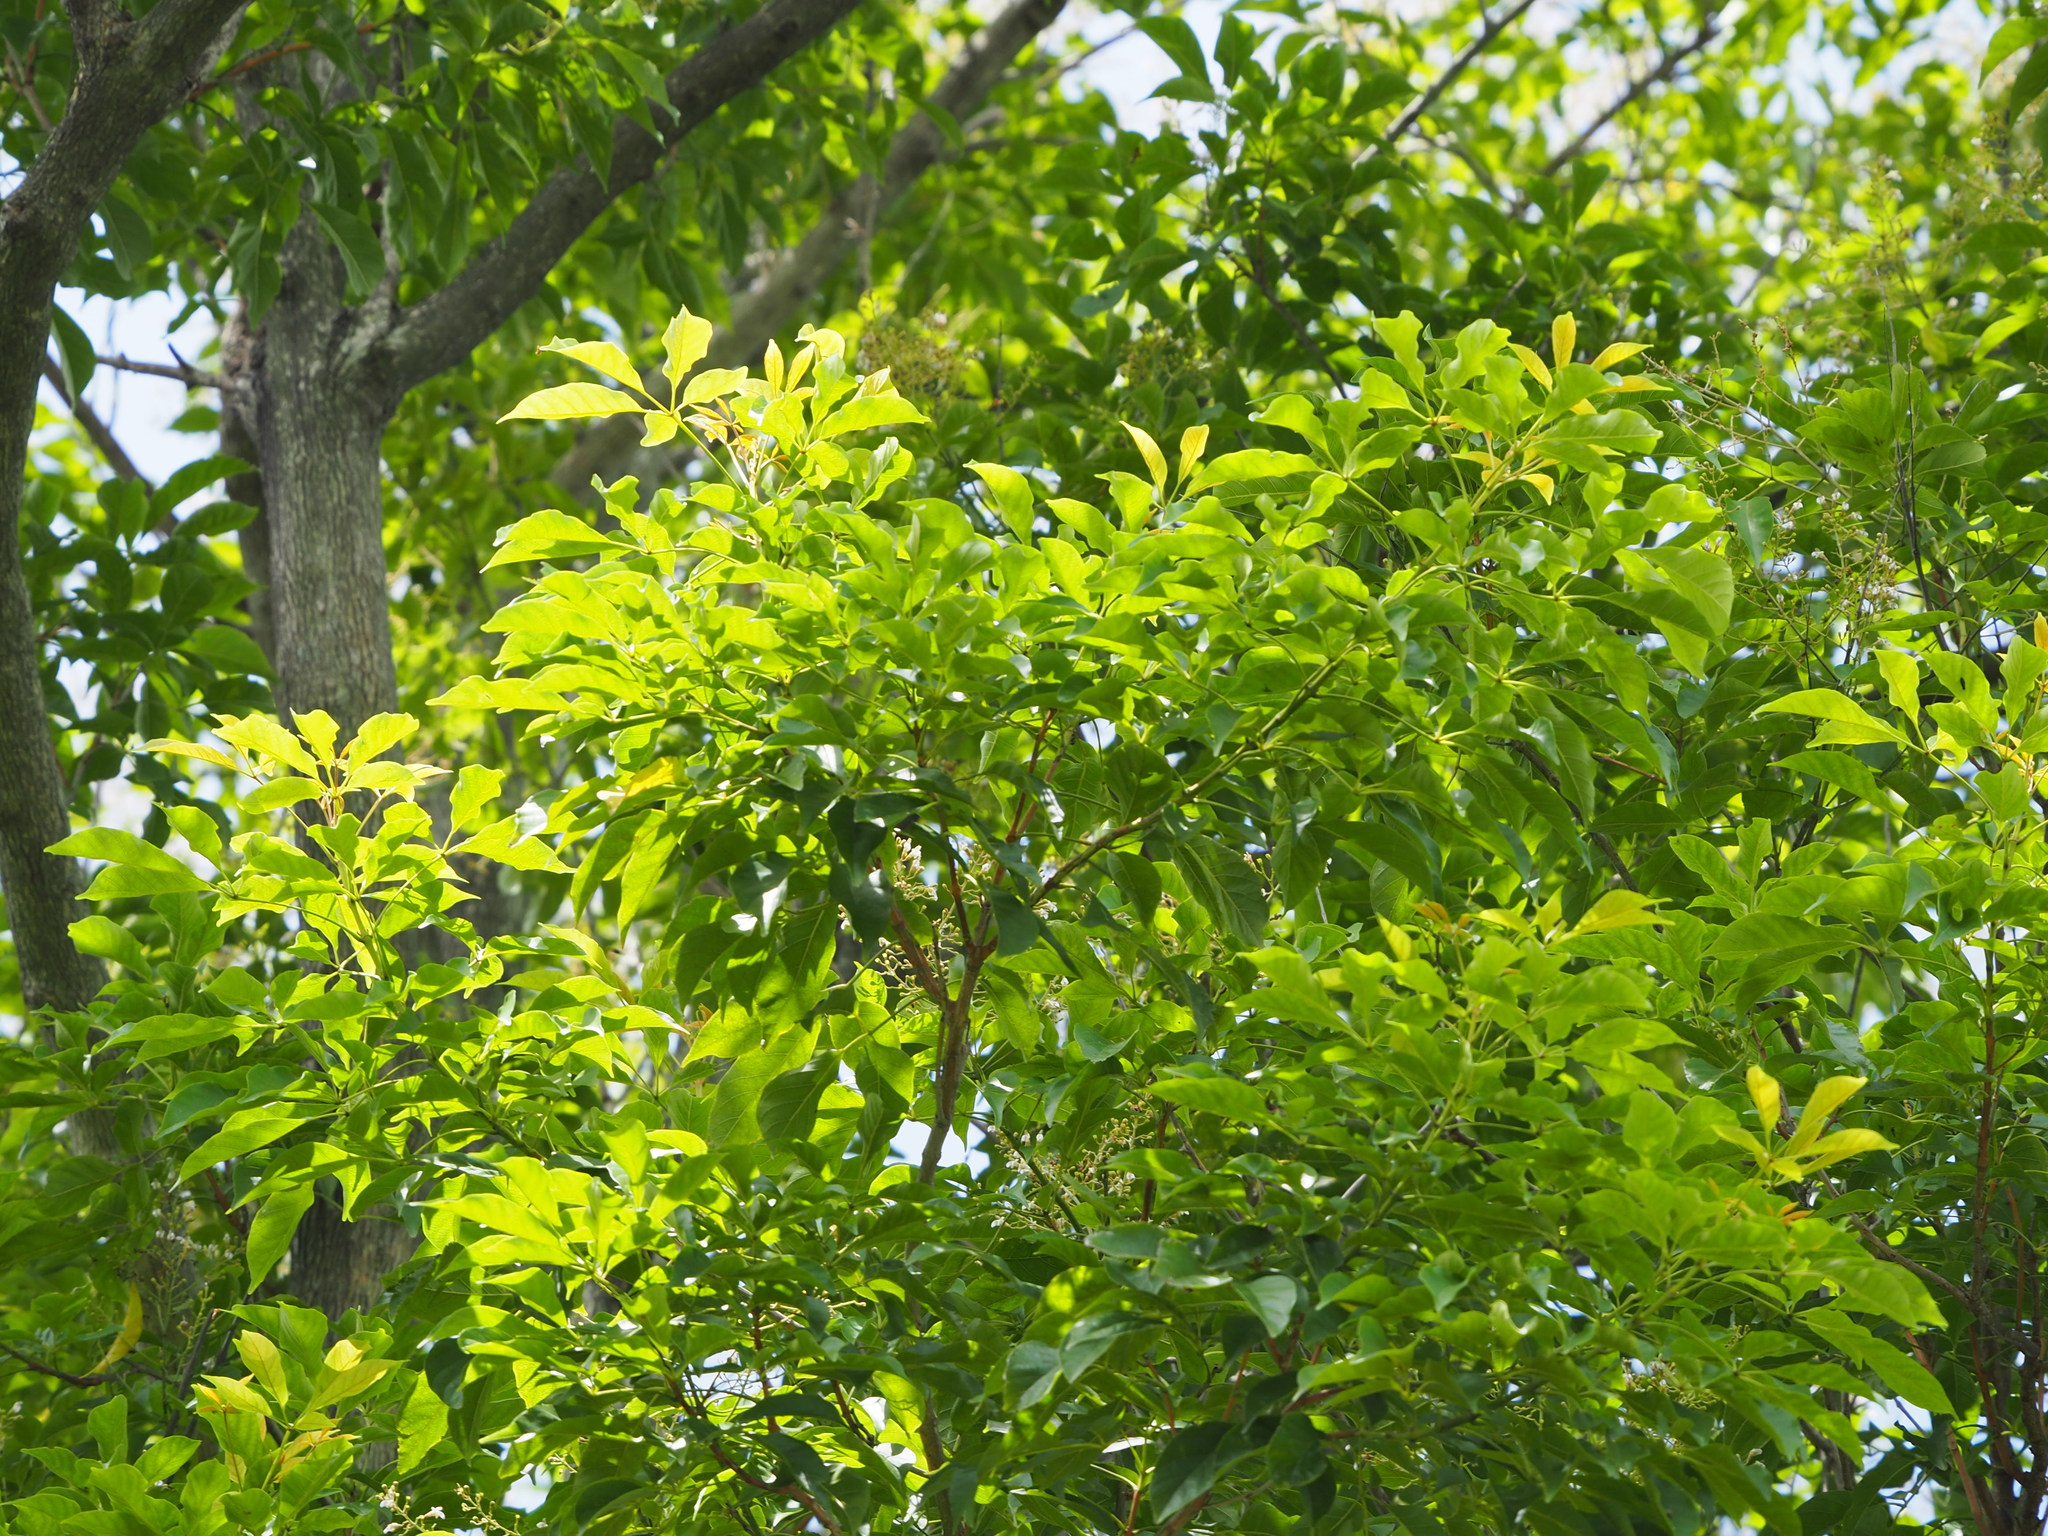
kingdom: Plantae
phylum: Tracheophyta
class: Magnoliopsida
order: Lamiales
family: Lamiaceae
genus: Vitex
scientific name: Vitex quinata
